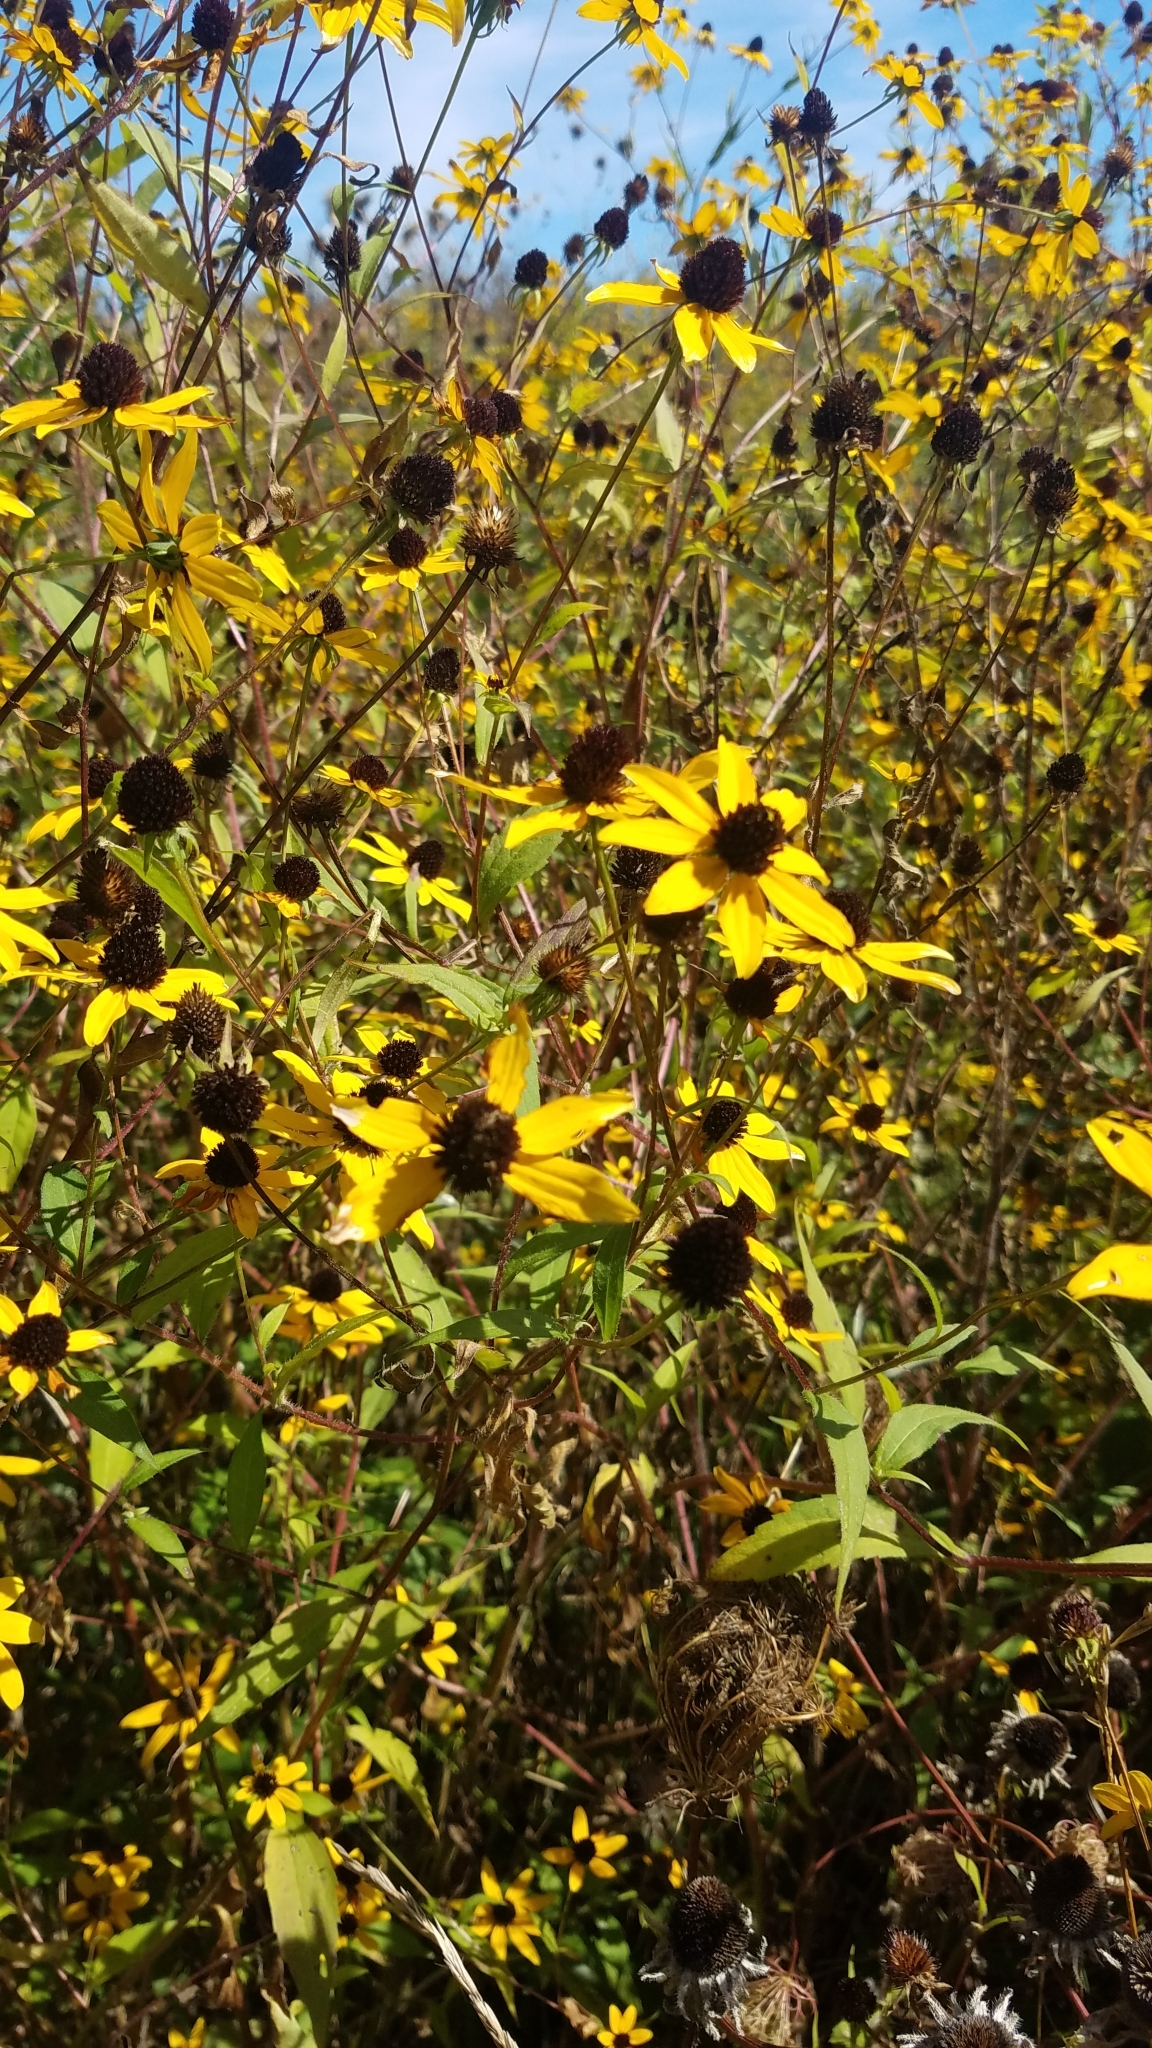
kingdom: Plantae
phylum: Tracheophyta
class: Magnoliopsida
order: Asterales
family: Asteraceae
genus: Rudbeckia
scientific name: Rudbeckia triloba
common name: Thin-leaved coneflower
